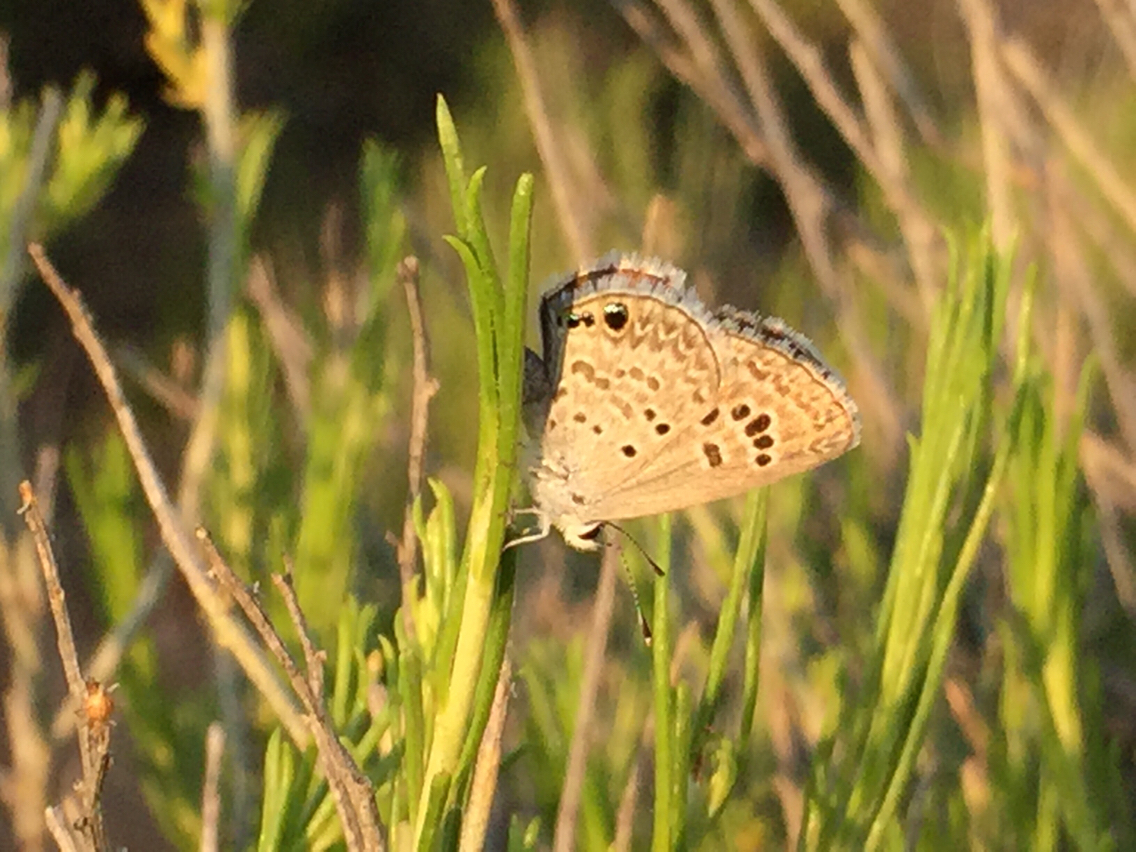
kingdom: Animalia
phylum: Arthropoda
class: Insecta
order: Lepidoptera
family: Lycaenidae
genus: Echinargus
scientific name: Echinargus isola
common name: Reakirt's blue
